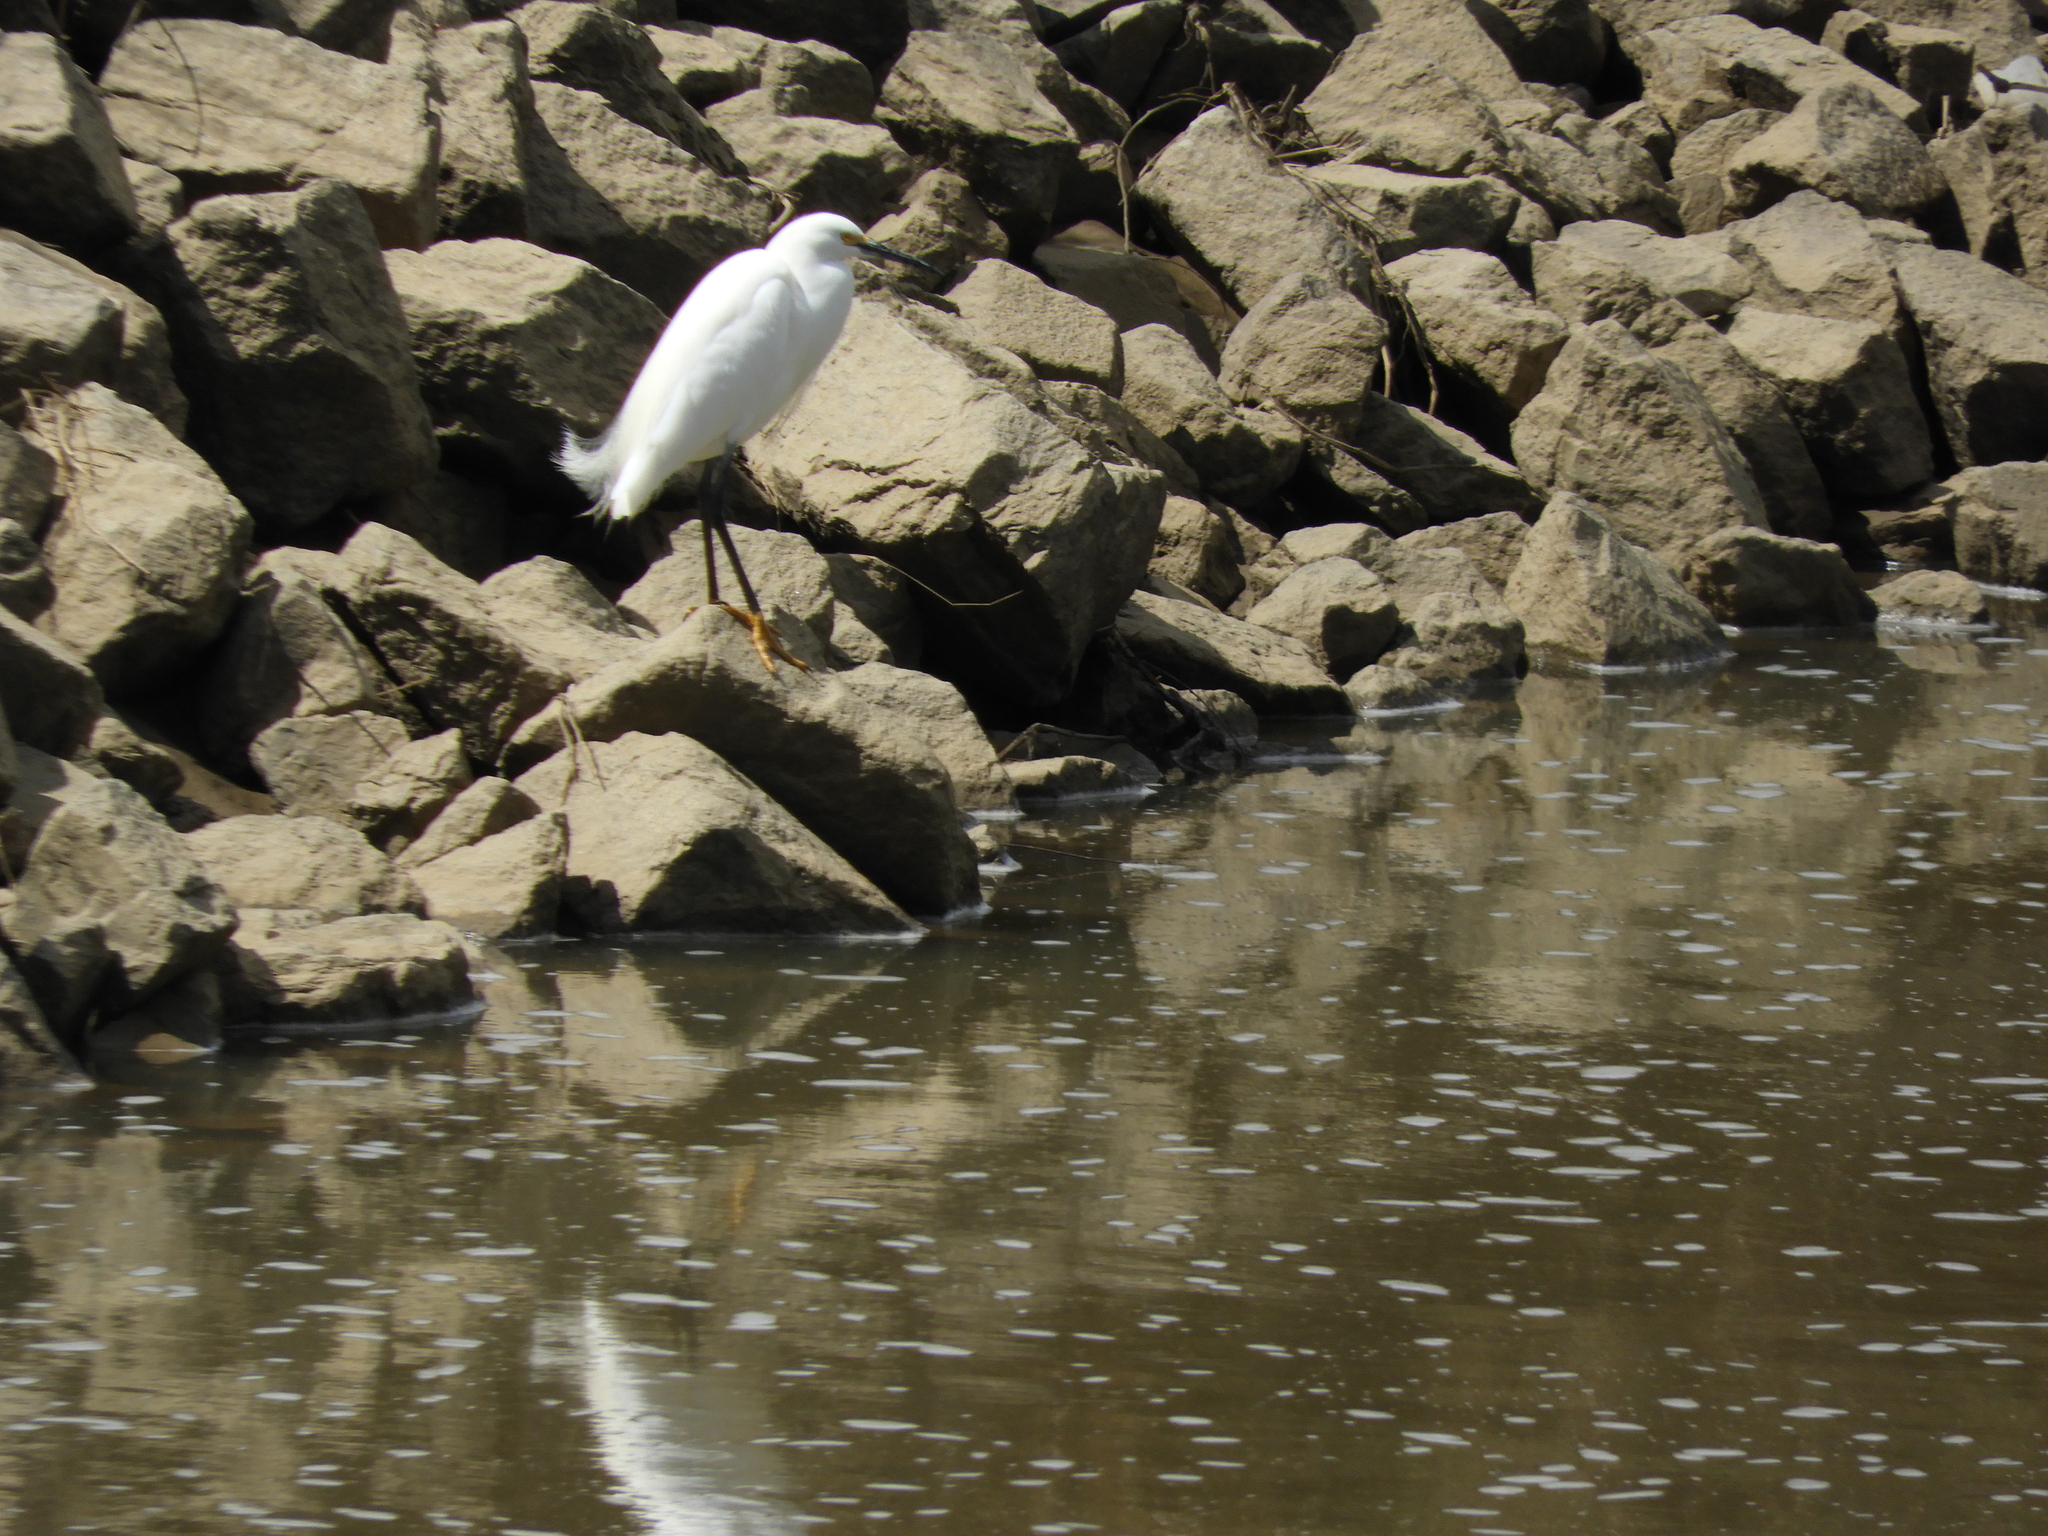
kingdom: Animalia
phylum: Chordata
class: Aves
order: Pelecaniformes
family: Ardeidae
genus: Egretta
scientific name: Egretta thula
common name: Snowy egret
